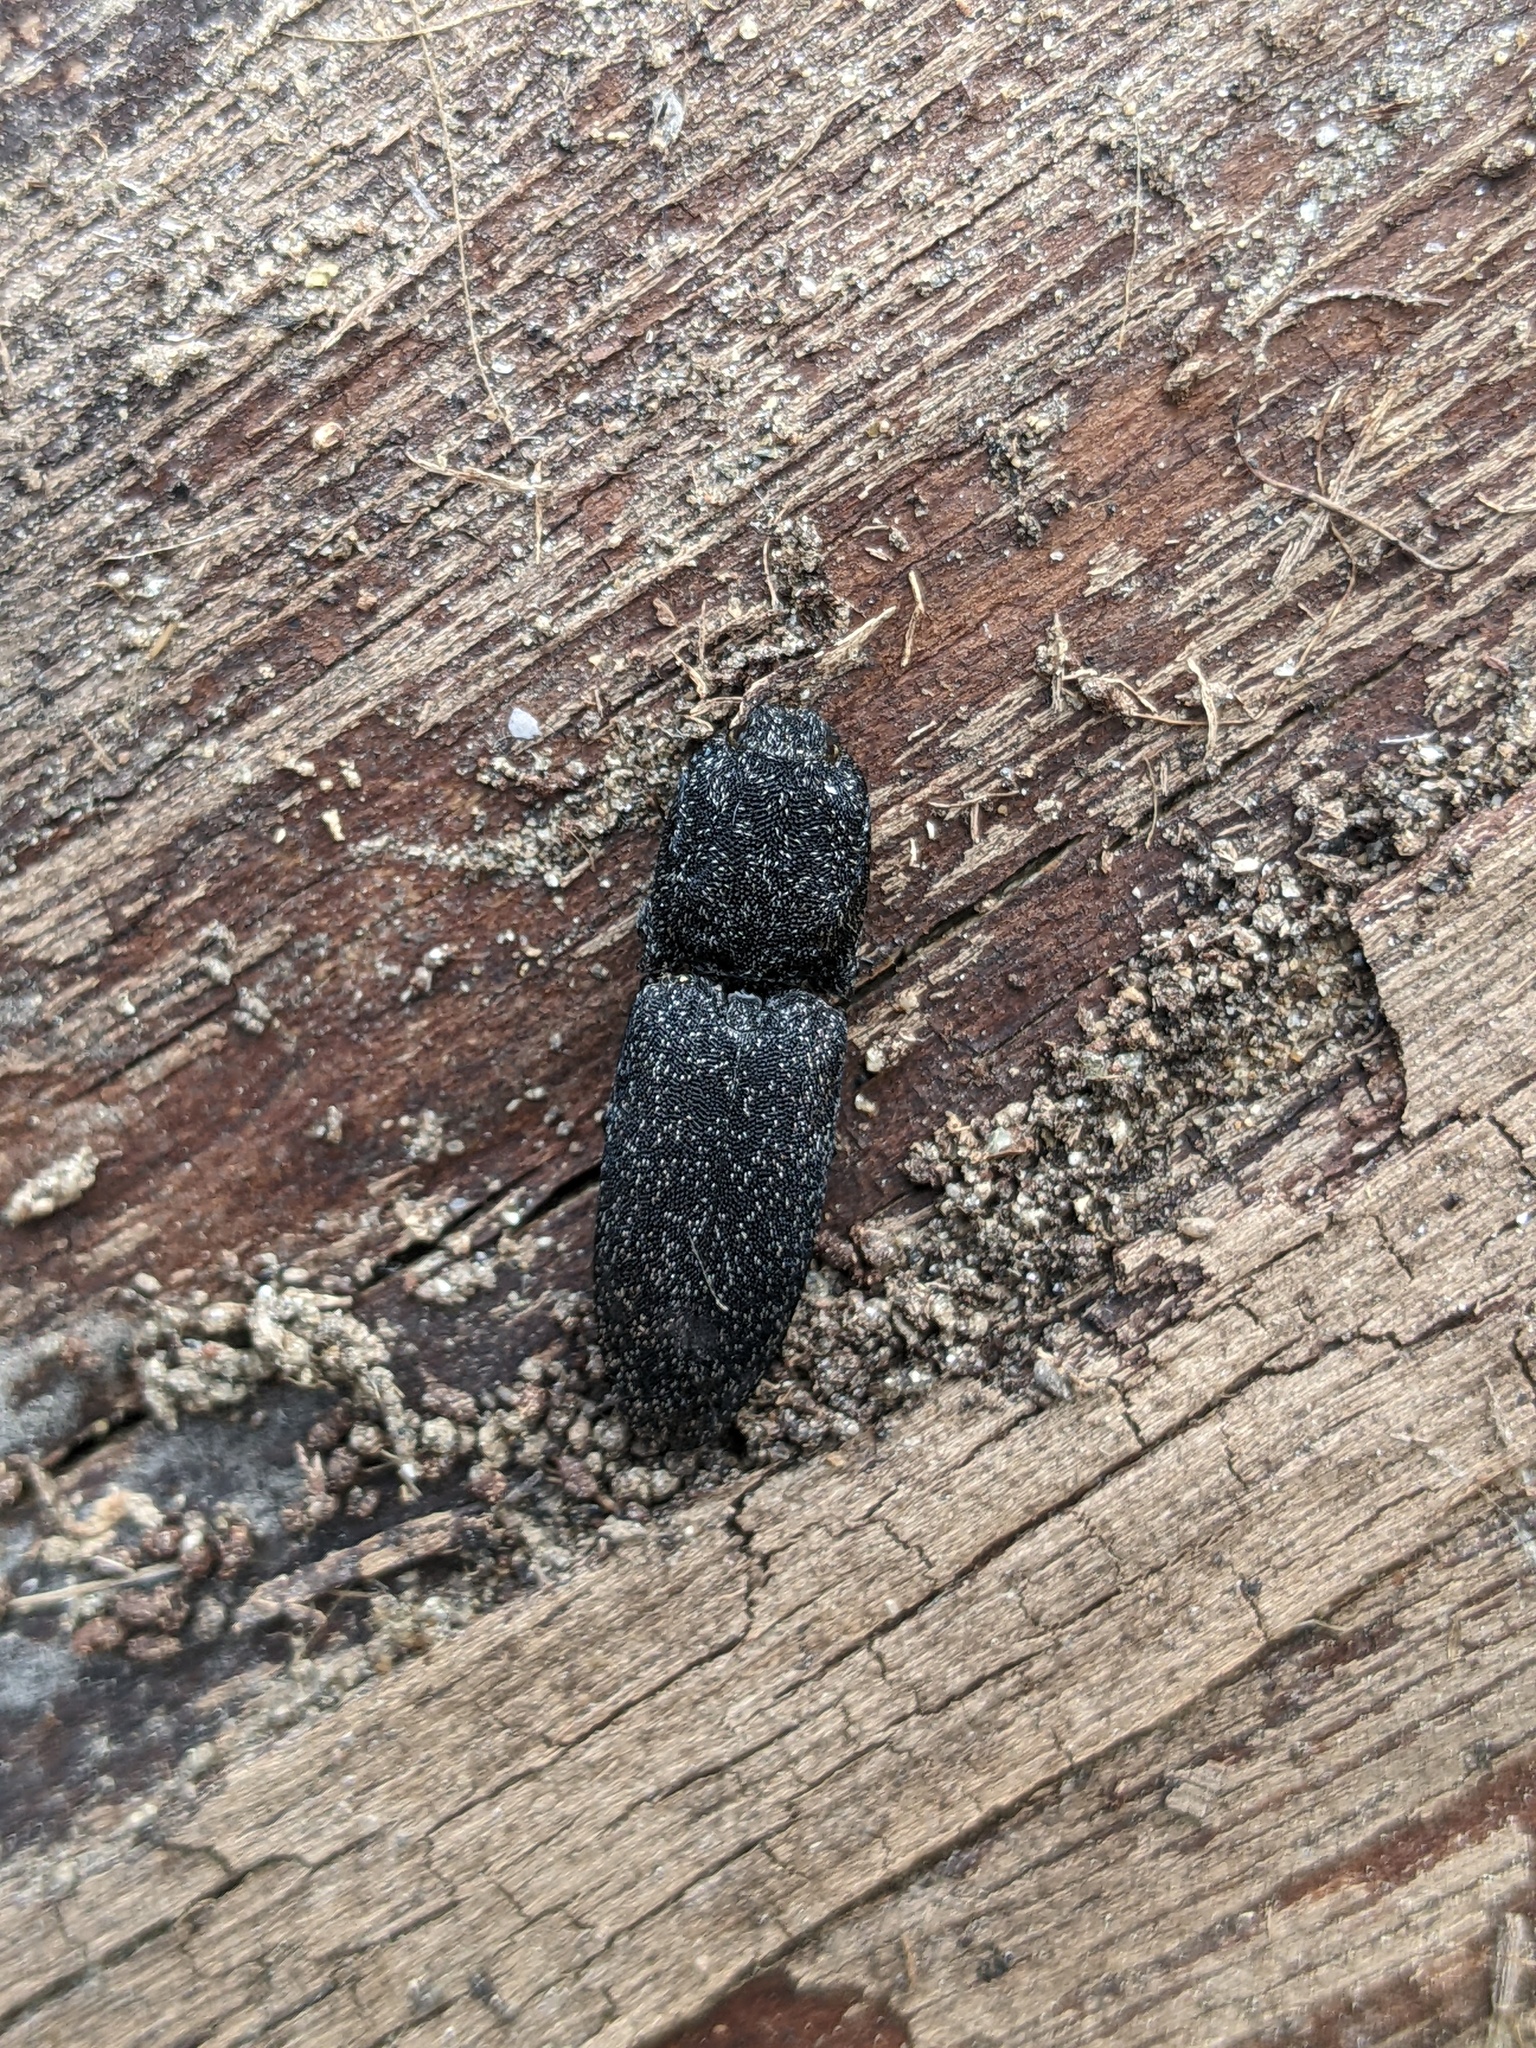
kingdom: Animalia
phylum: Arthropoda
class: Insecta
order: Coleoptera
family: Elateridae
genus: Lacon
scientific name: Lacon punctatus
